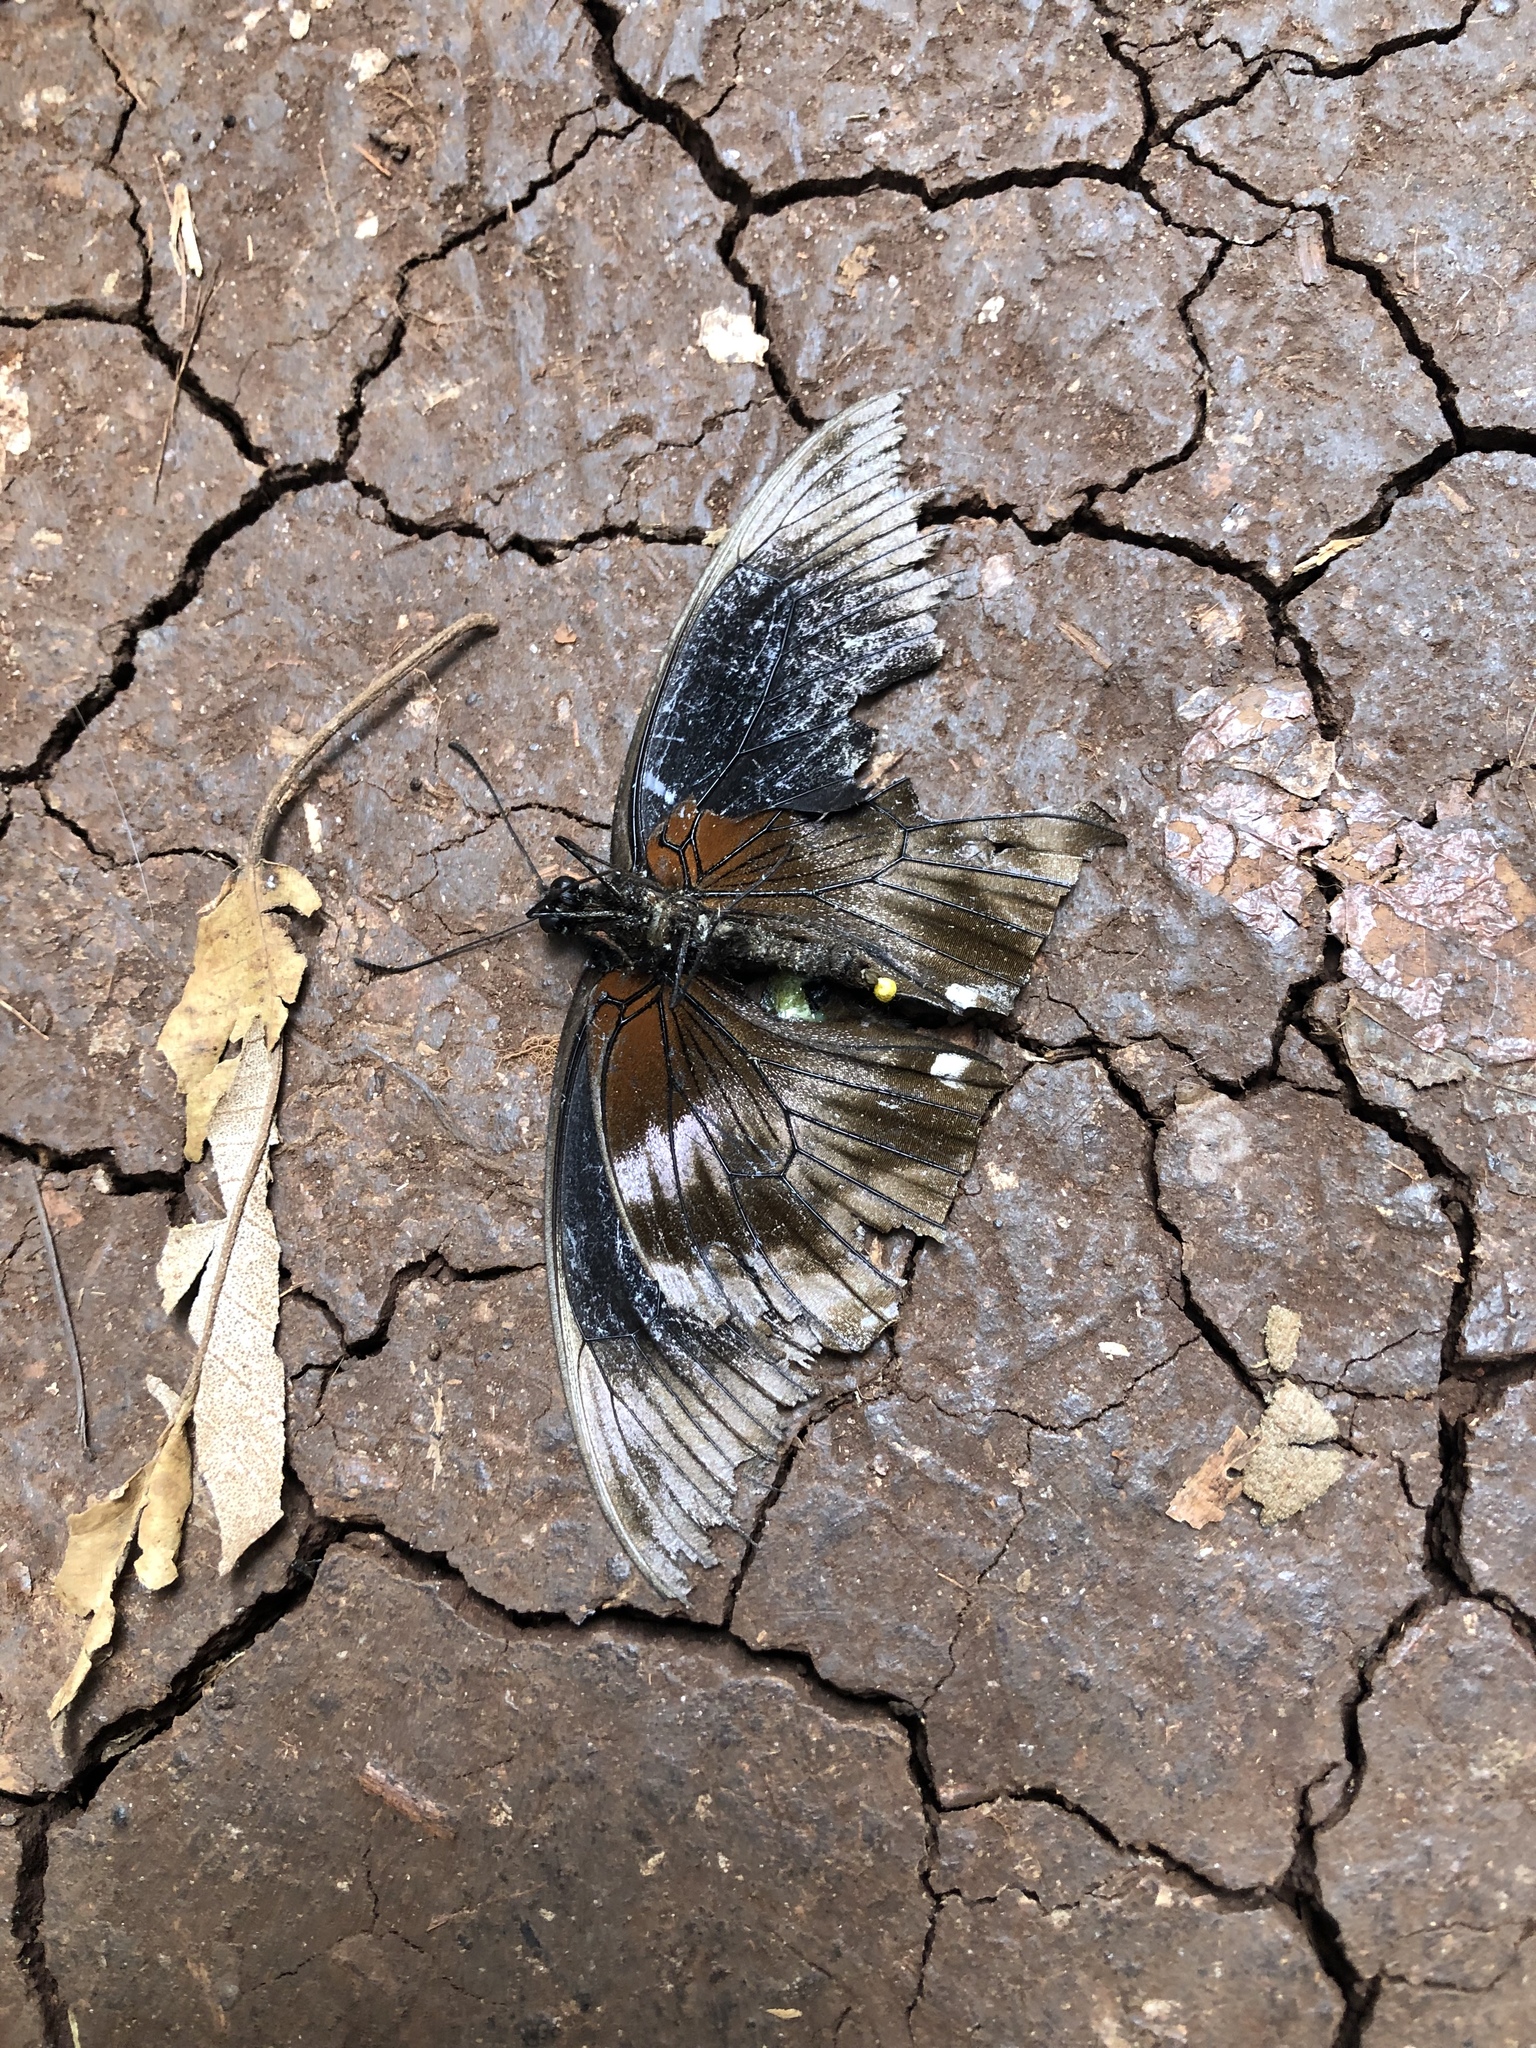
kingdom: Animalia
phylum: Arthropoda
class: Insecta
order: Lepidoptera
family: Papilionidae
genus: Papilio
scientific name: Papilio nireus
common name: Greenbanded swallowtail
